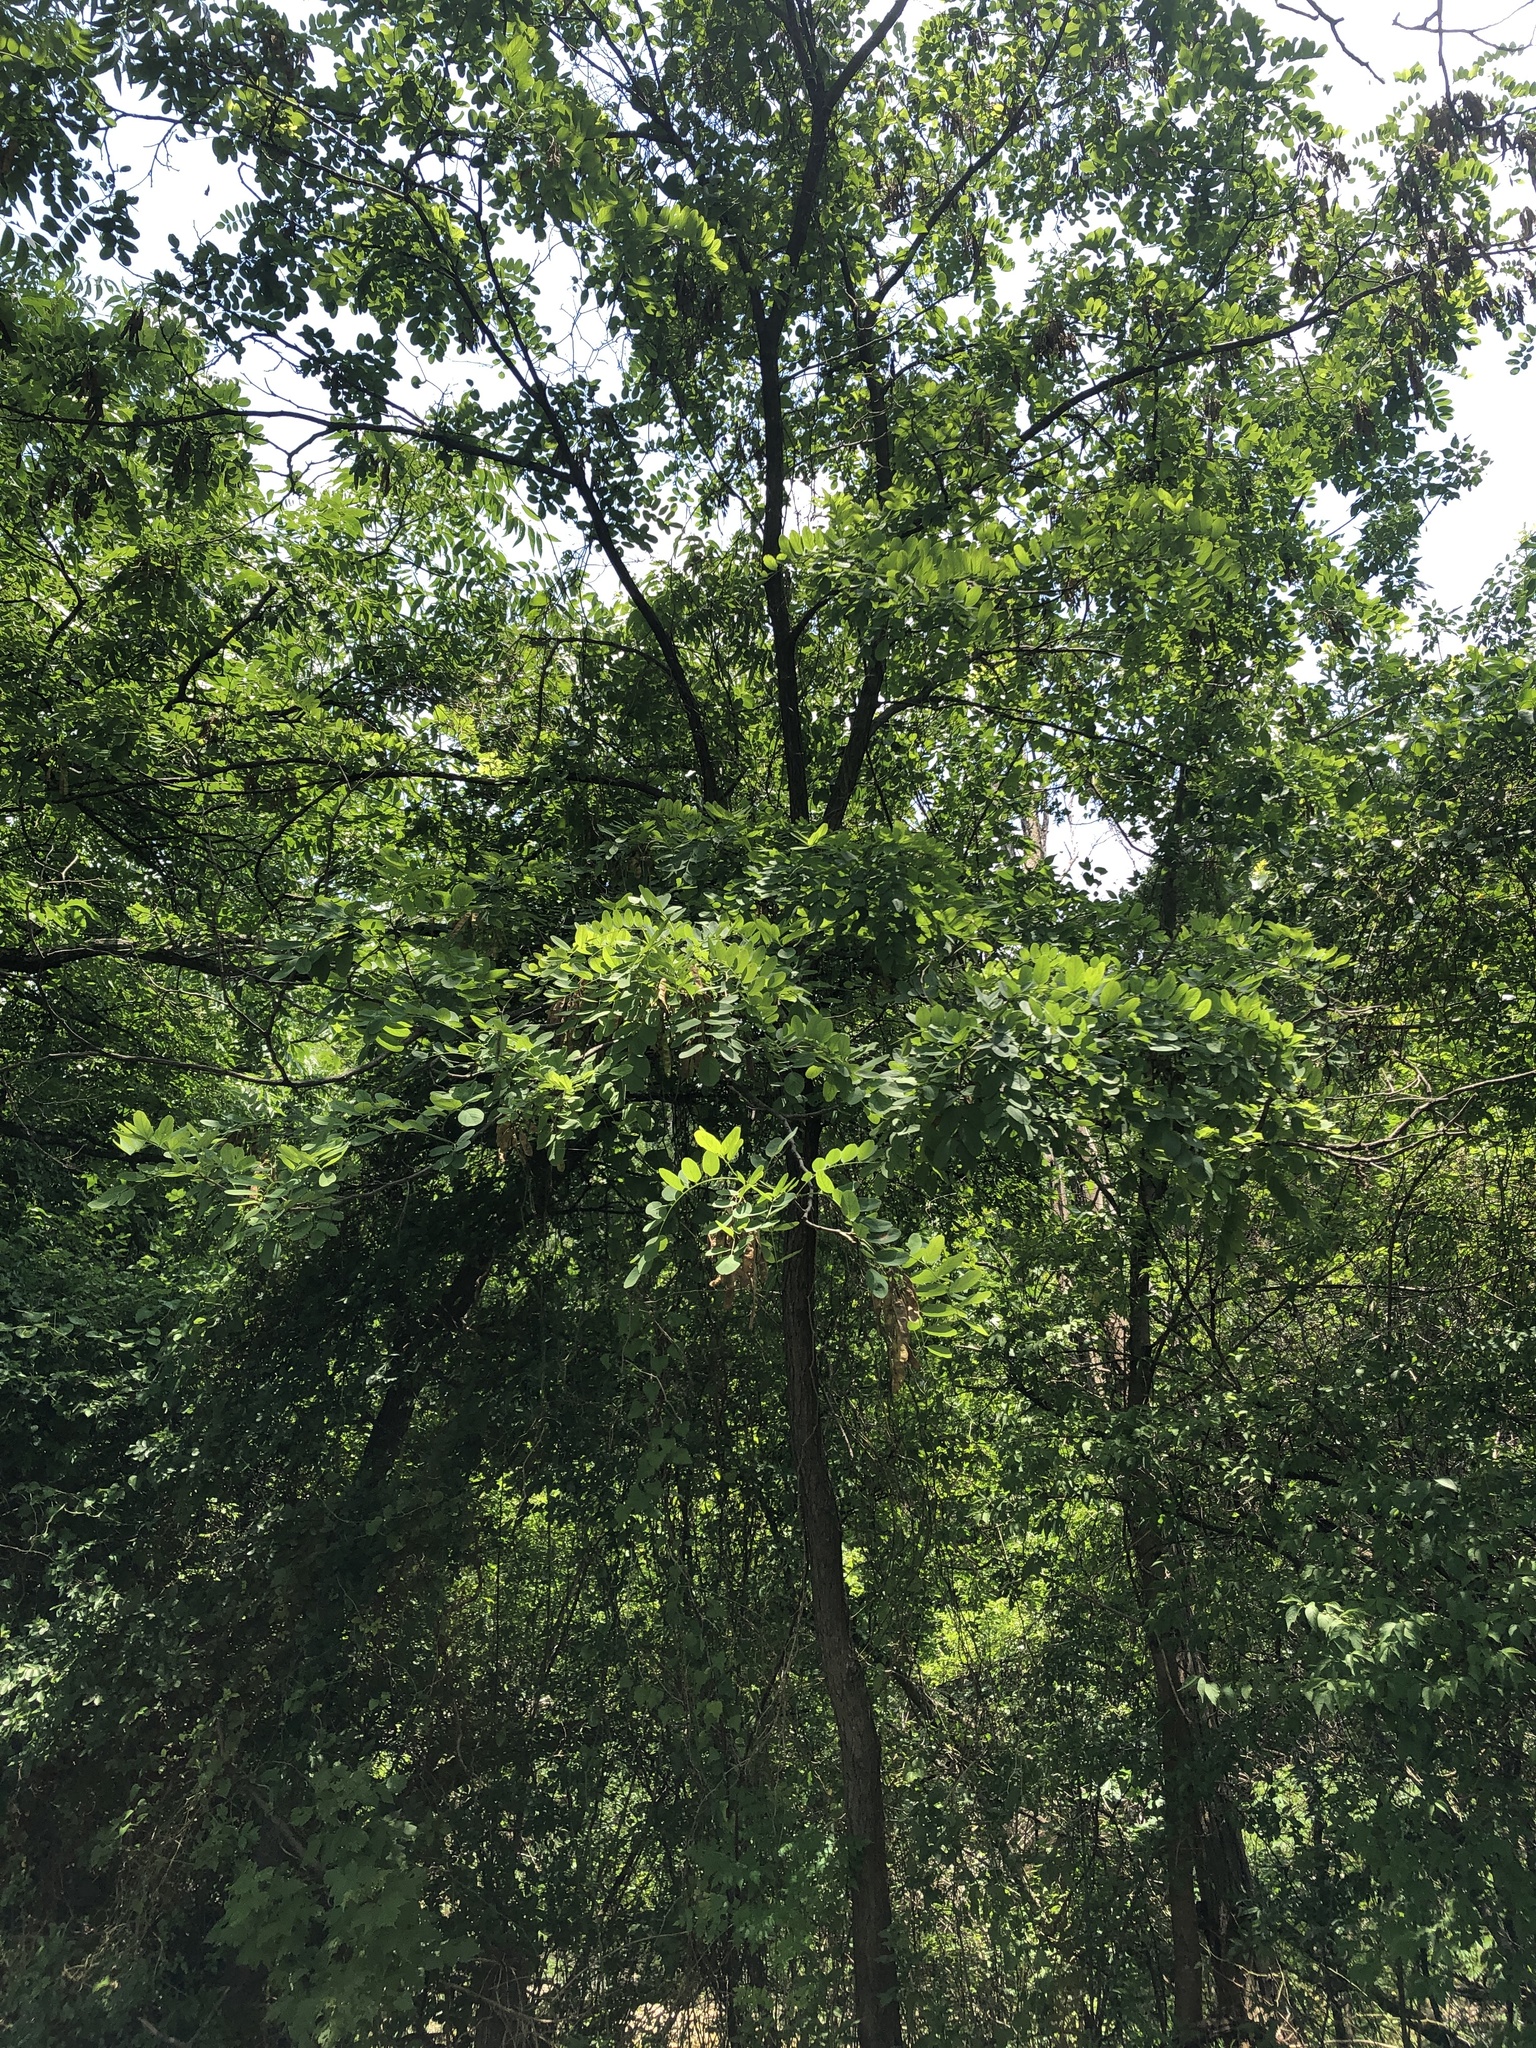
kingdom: Plantae
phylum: Tracheophyta
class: Magnoliopsida
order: Fabales
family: Fabaceae
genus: Robinia
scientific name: Robinia pseudoacacia
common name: Black locust
